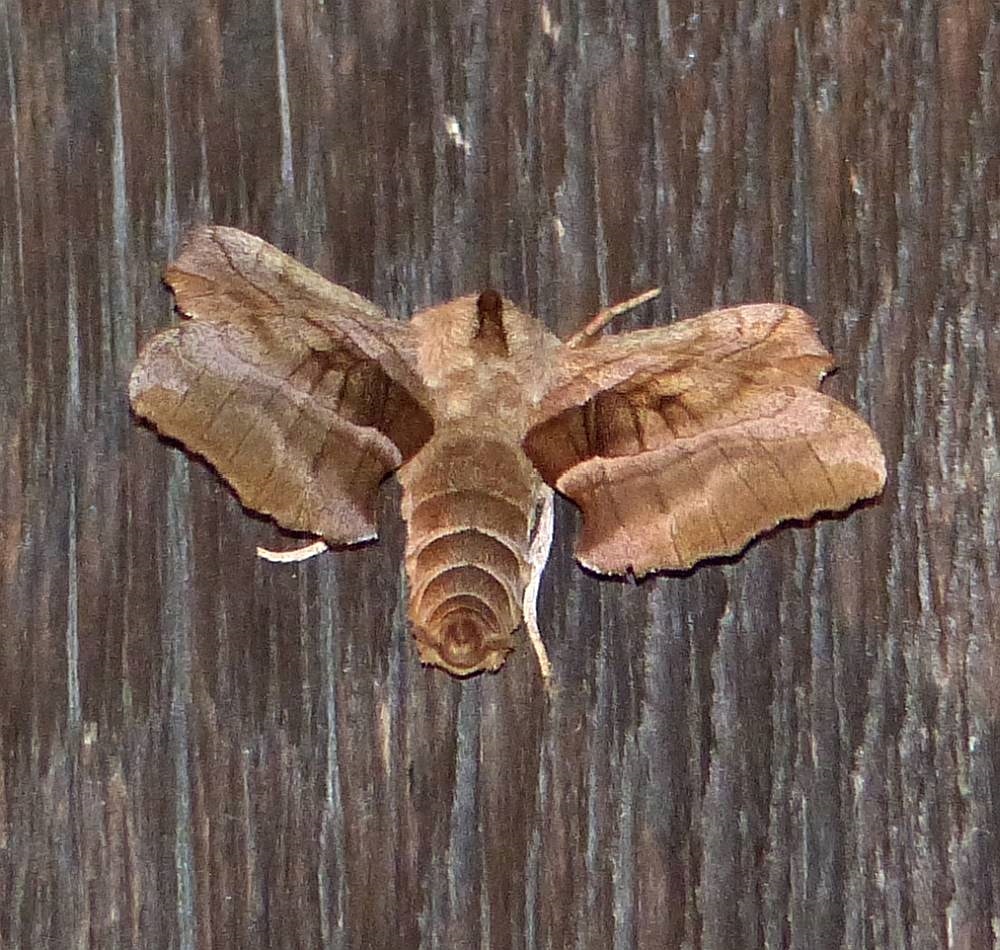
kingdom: Animalia
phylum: Arthropoda
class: Insecta
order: Lepidoptera
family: Sphingidae
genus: Amorpha
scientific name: Amorpha juglandis
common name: Walnut sphinx
